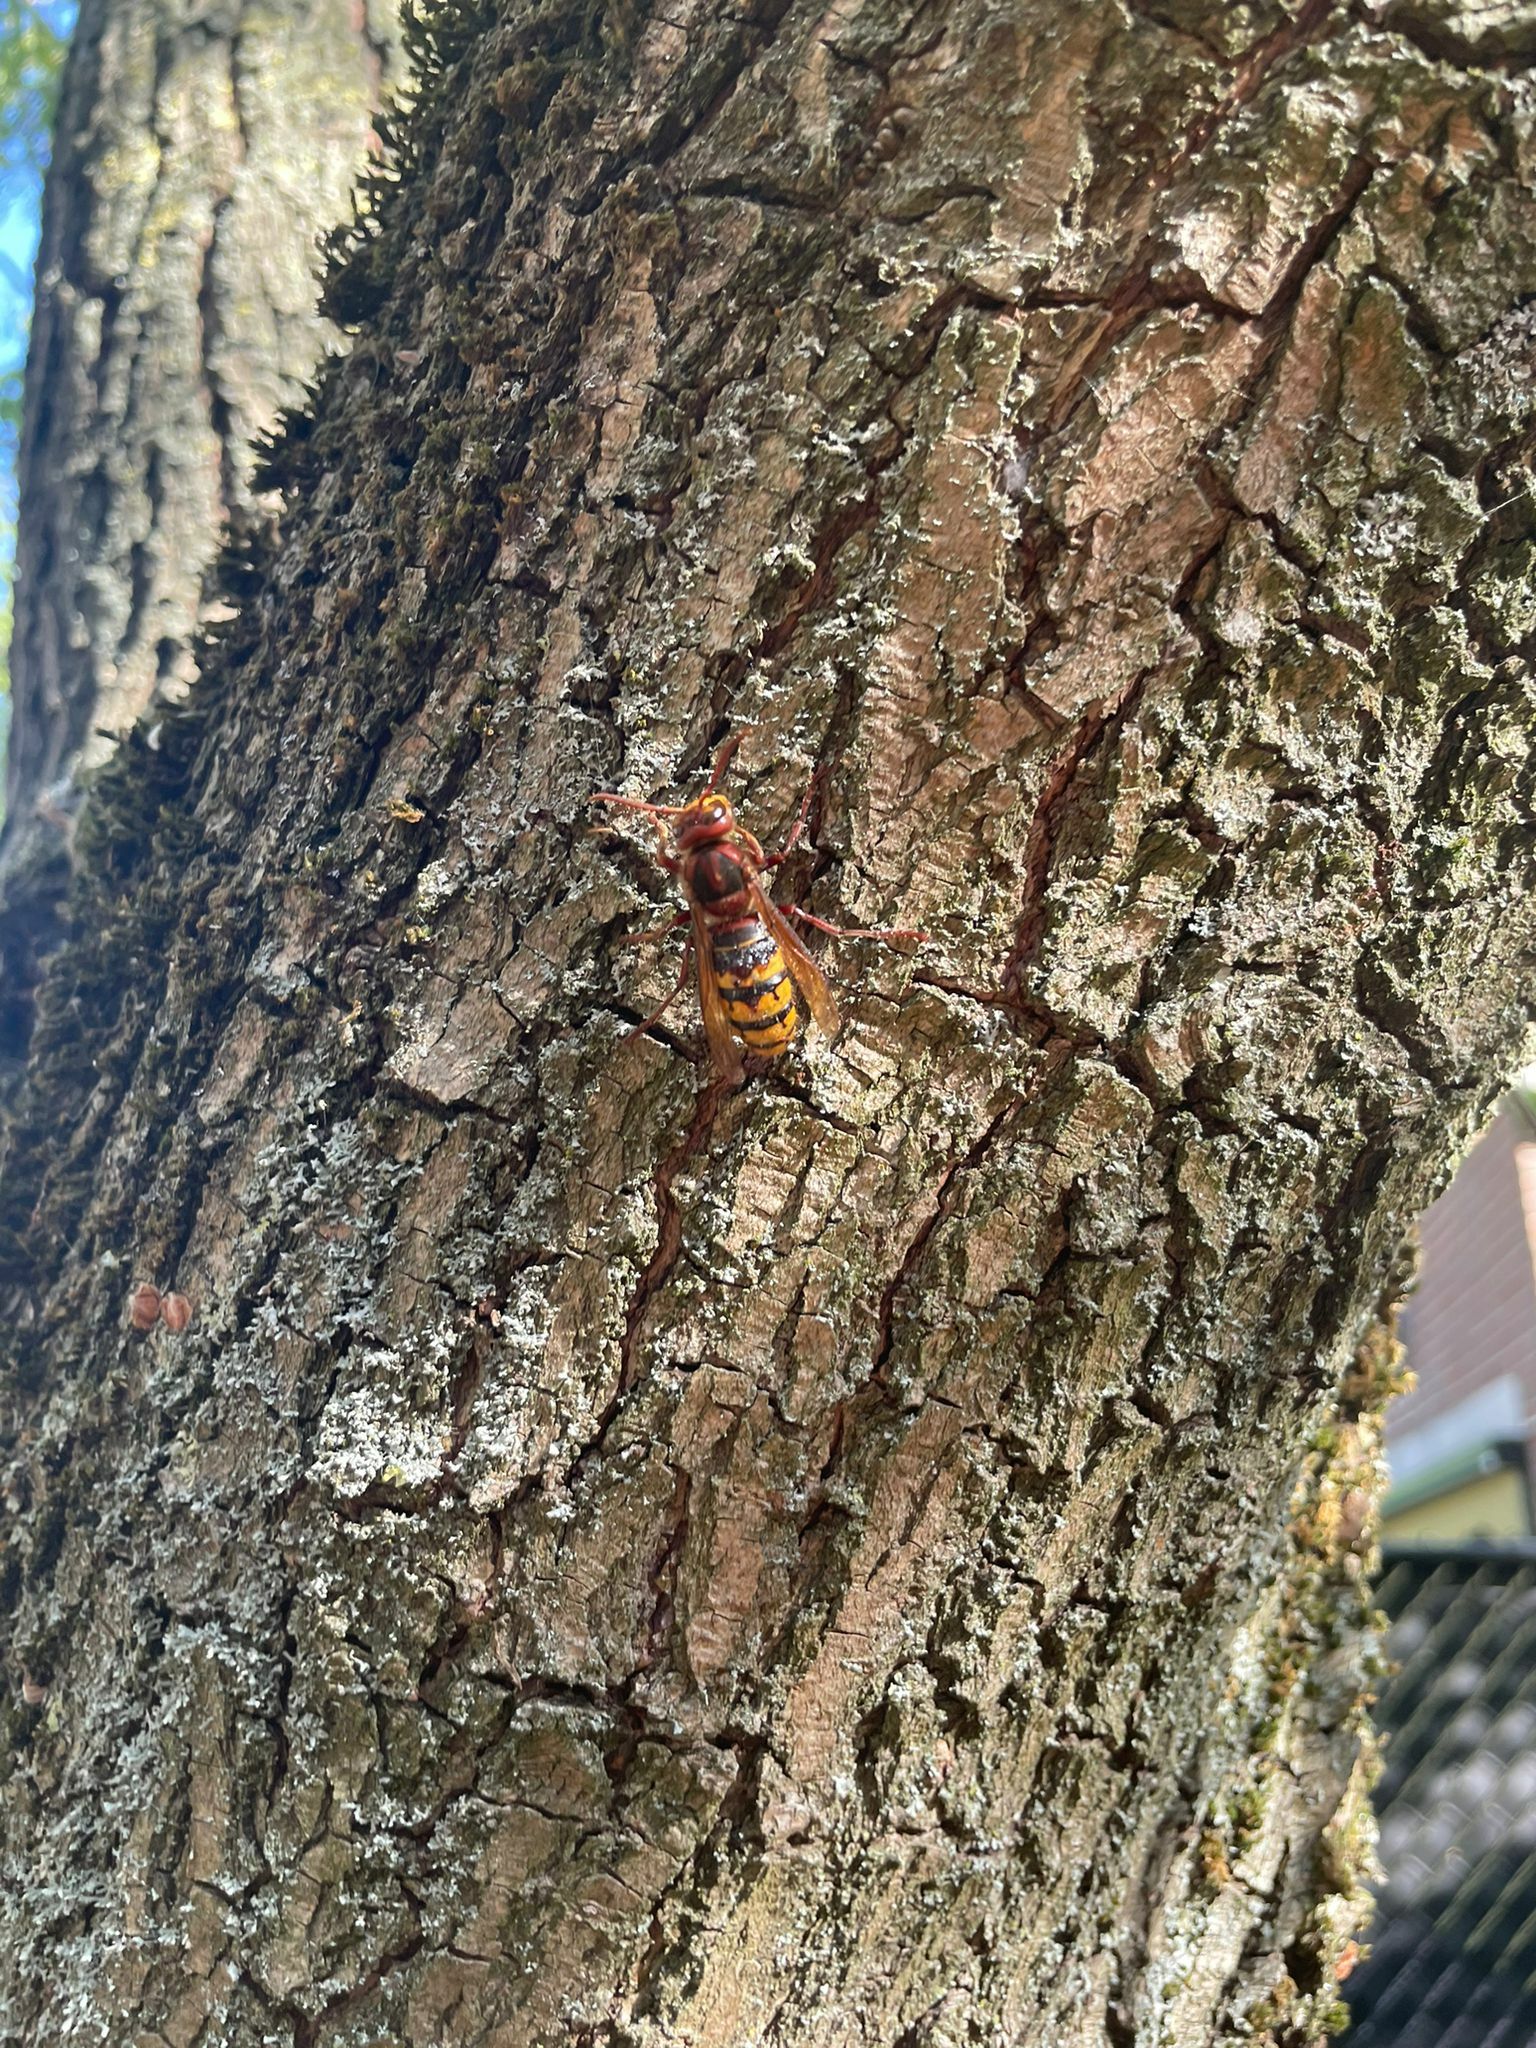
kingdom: Animalia
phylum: Arthropoda
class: Insecta
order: Hymenoptera
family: Vespidae
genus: Vespa
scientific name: Vespa crabro
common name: Hornet
